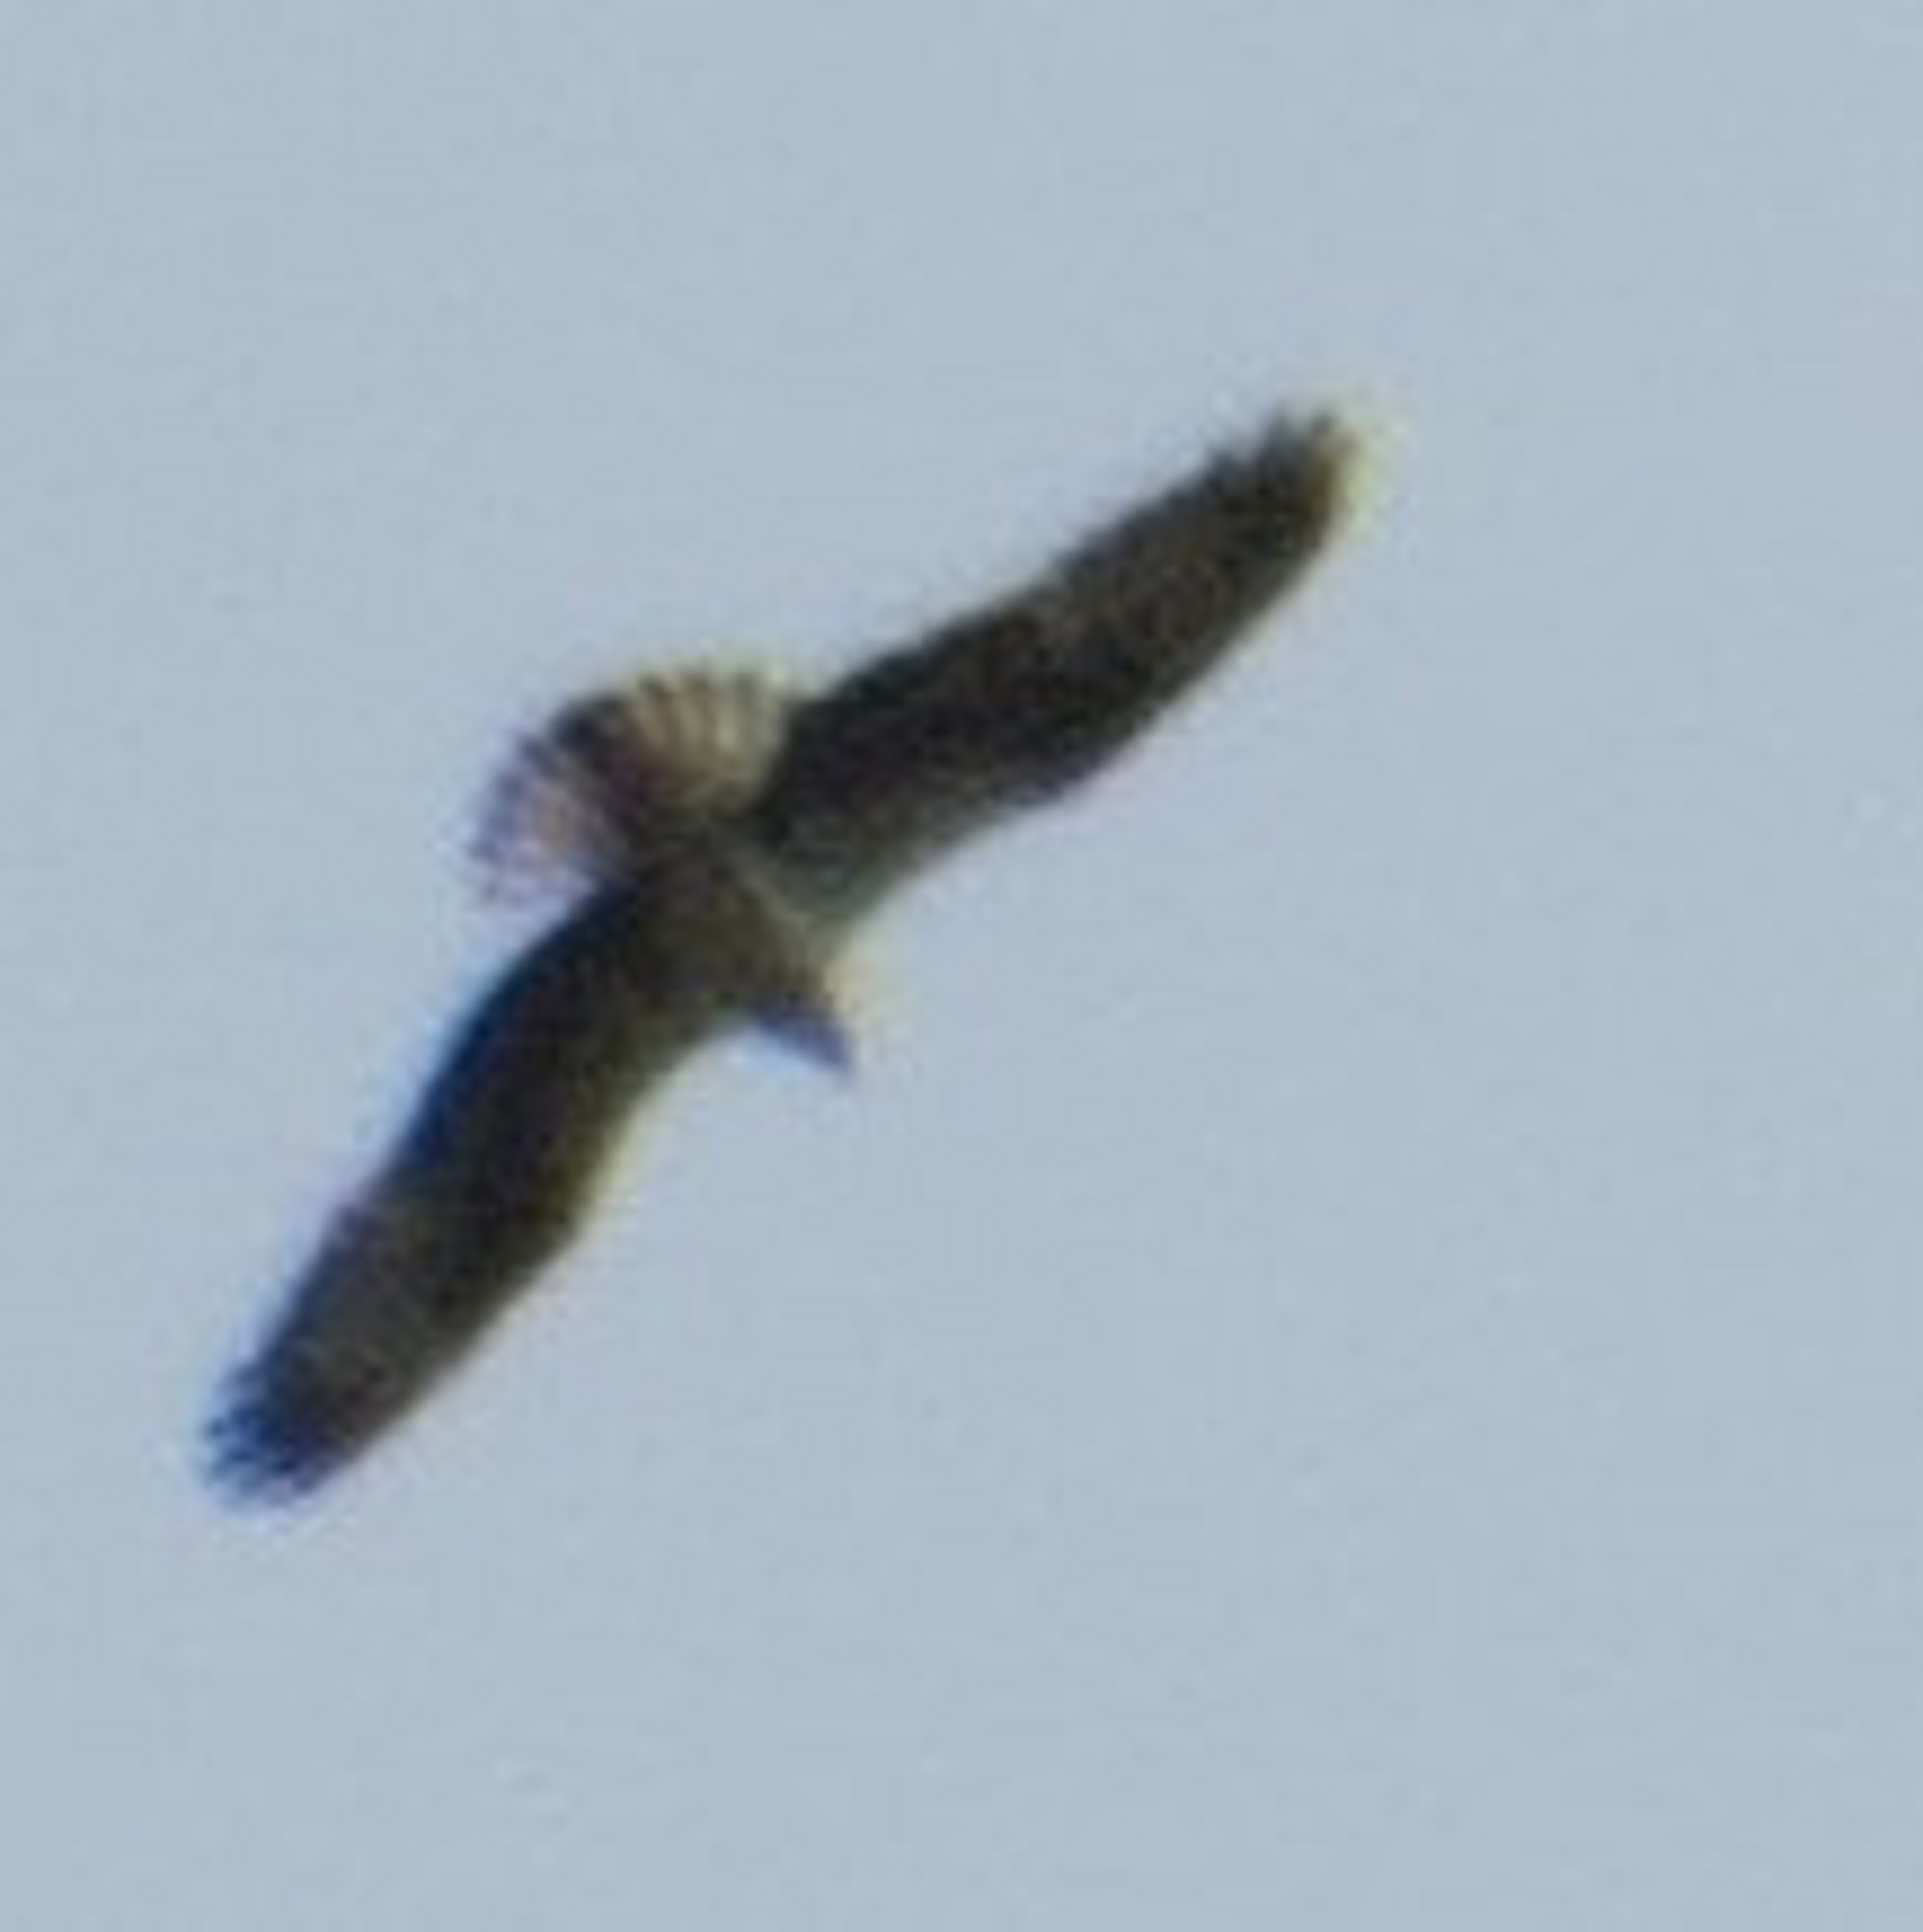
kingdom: Animalia
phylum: Chordata
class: Aves
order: Accipitriformes
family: Pandionidae
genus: Pandion
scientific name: Pandion haliaetus
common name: Osprey
